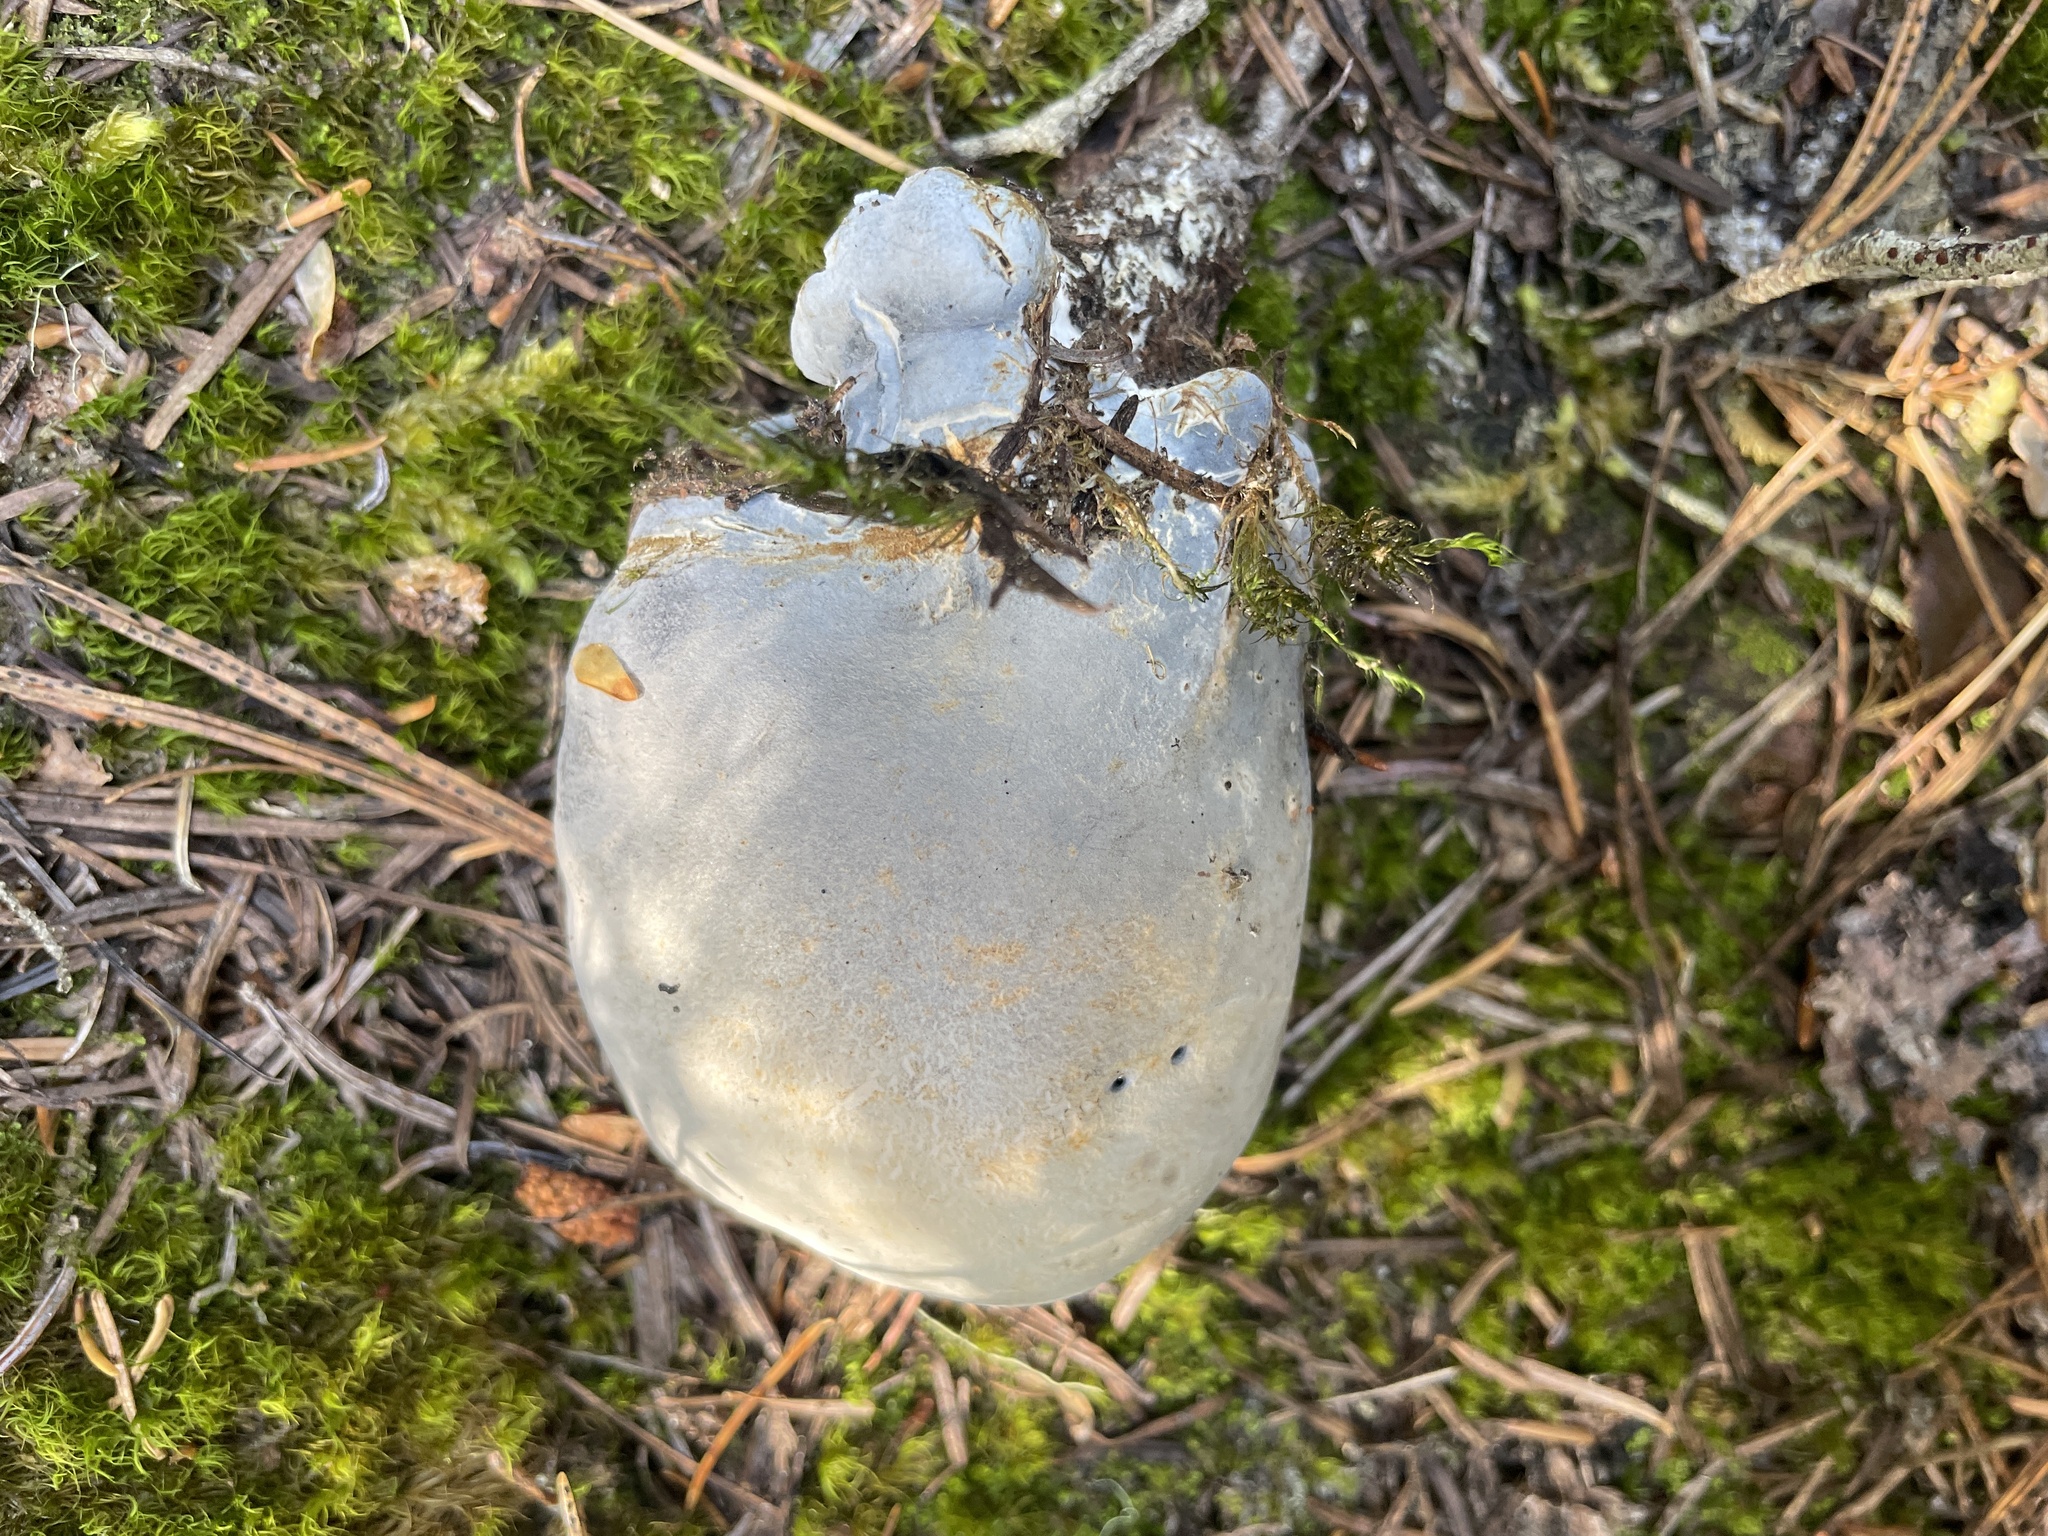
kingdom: Fungi
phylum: Basidiomycota
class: Agaricomycetes
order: Russulales
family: Albatrellaceae
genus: Albatrellopsis
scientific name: Albatrellopsis flettii
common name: Blue polypore
